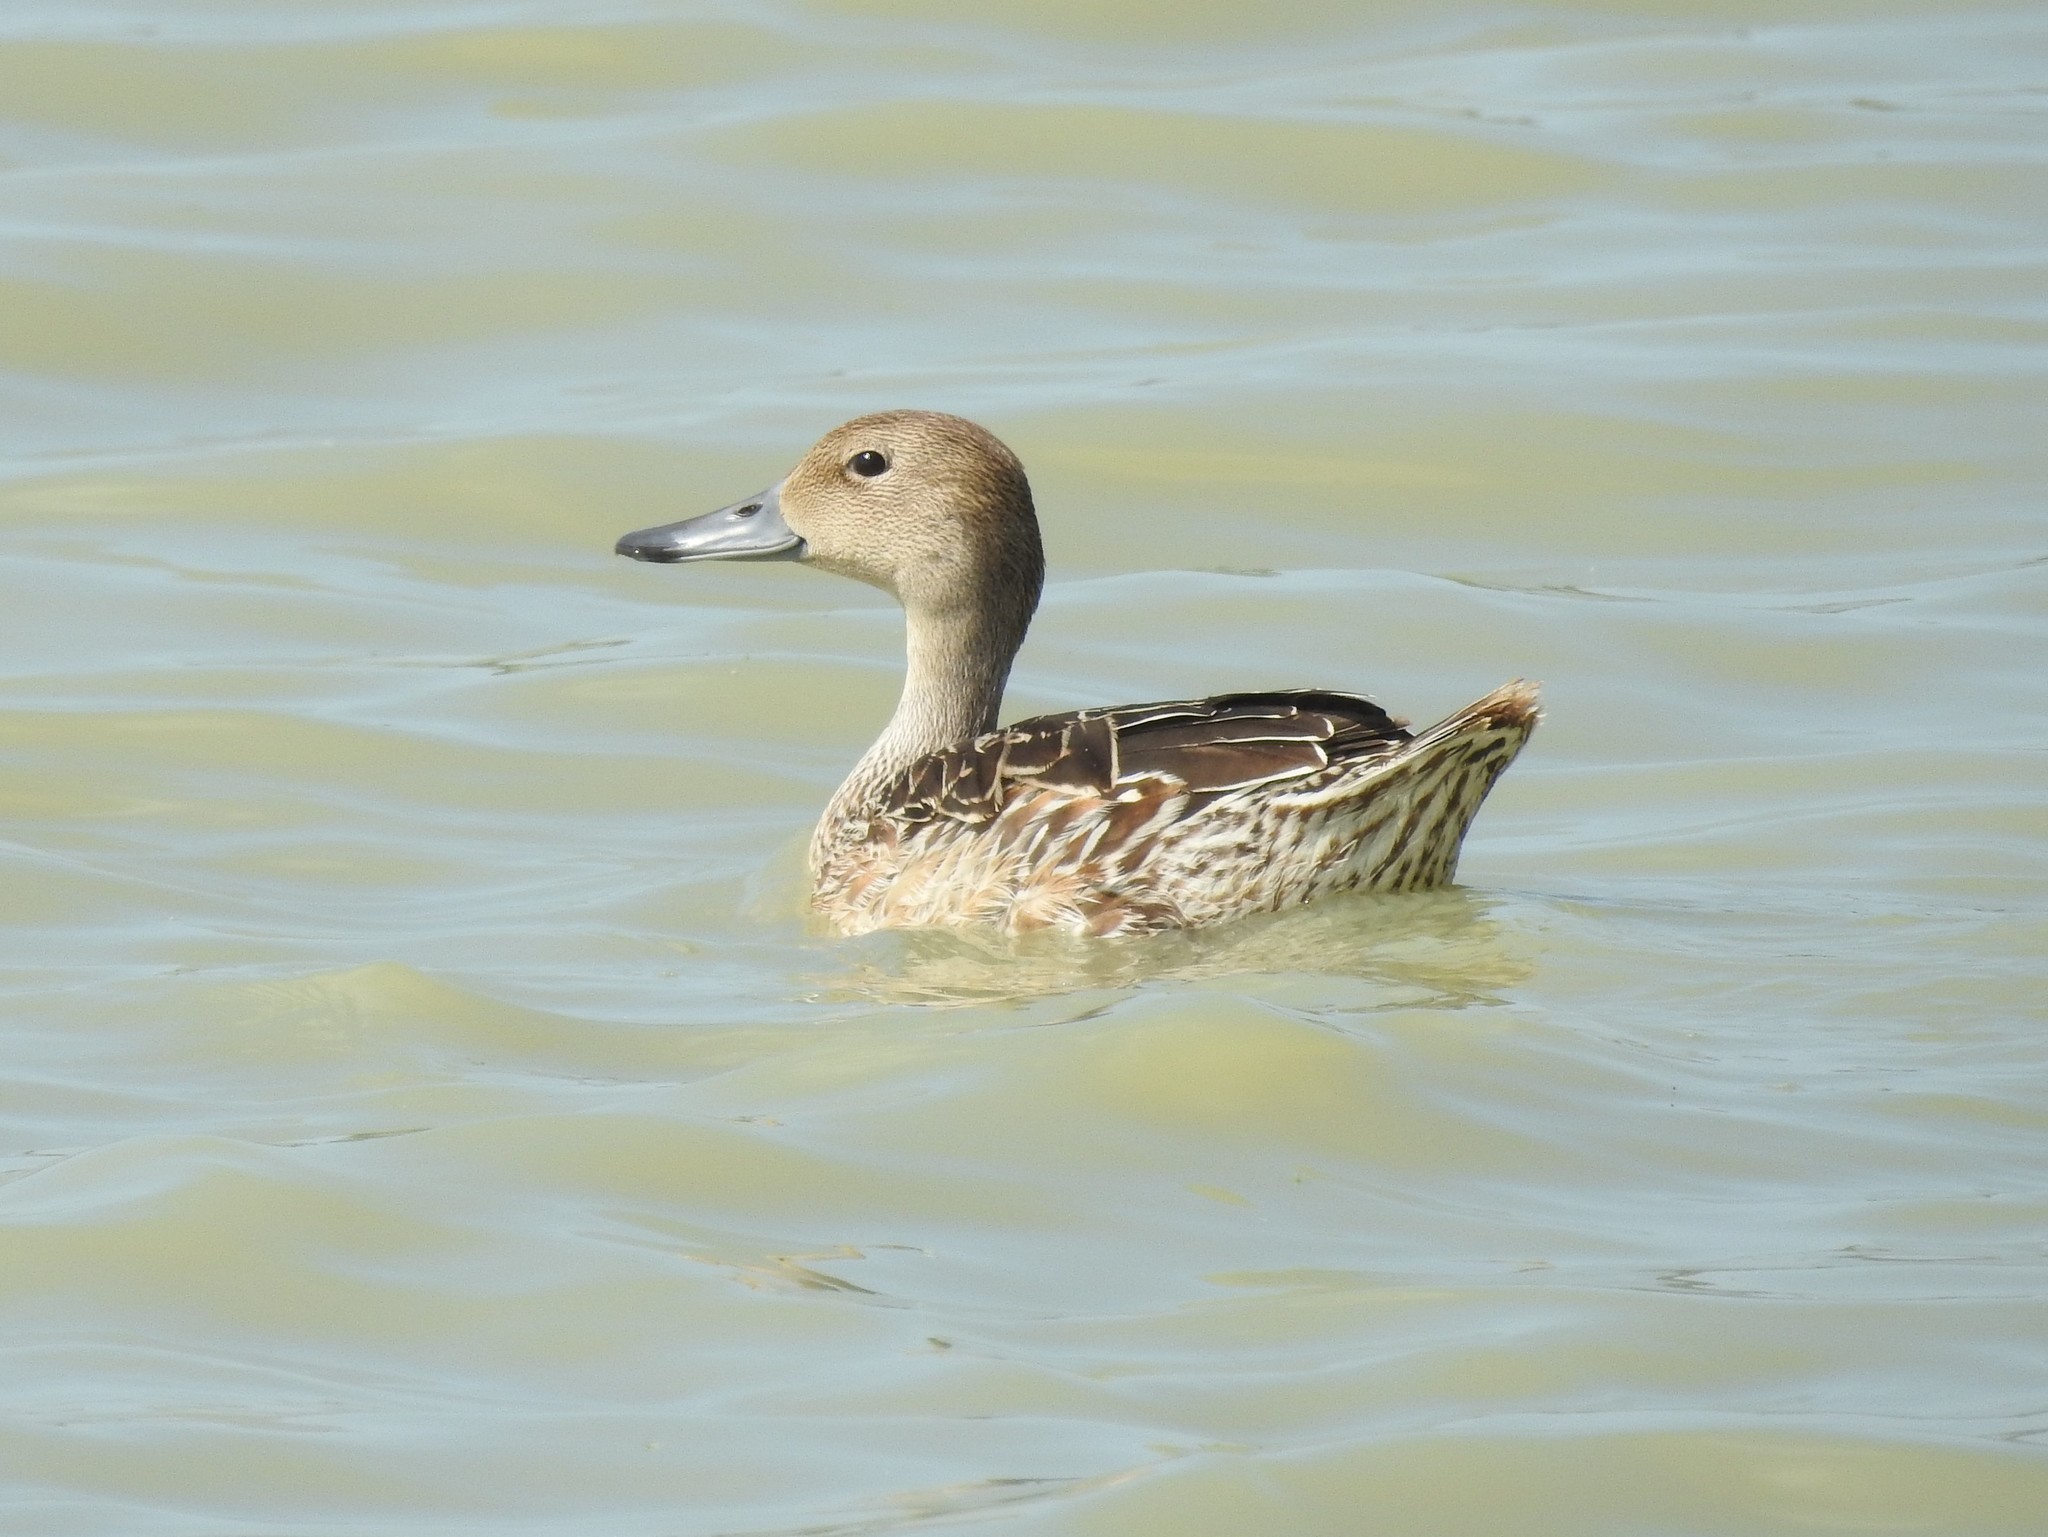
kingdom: Animalia
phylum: Chordata
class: Aves
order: Anseriformes
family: Anatidae
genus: Anas
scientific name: Anas acuta
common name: Northern pintail
